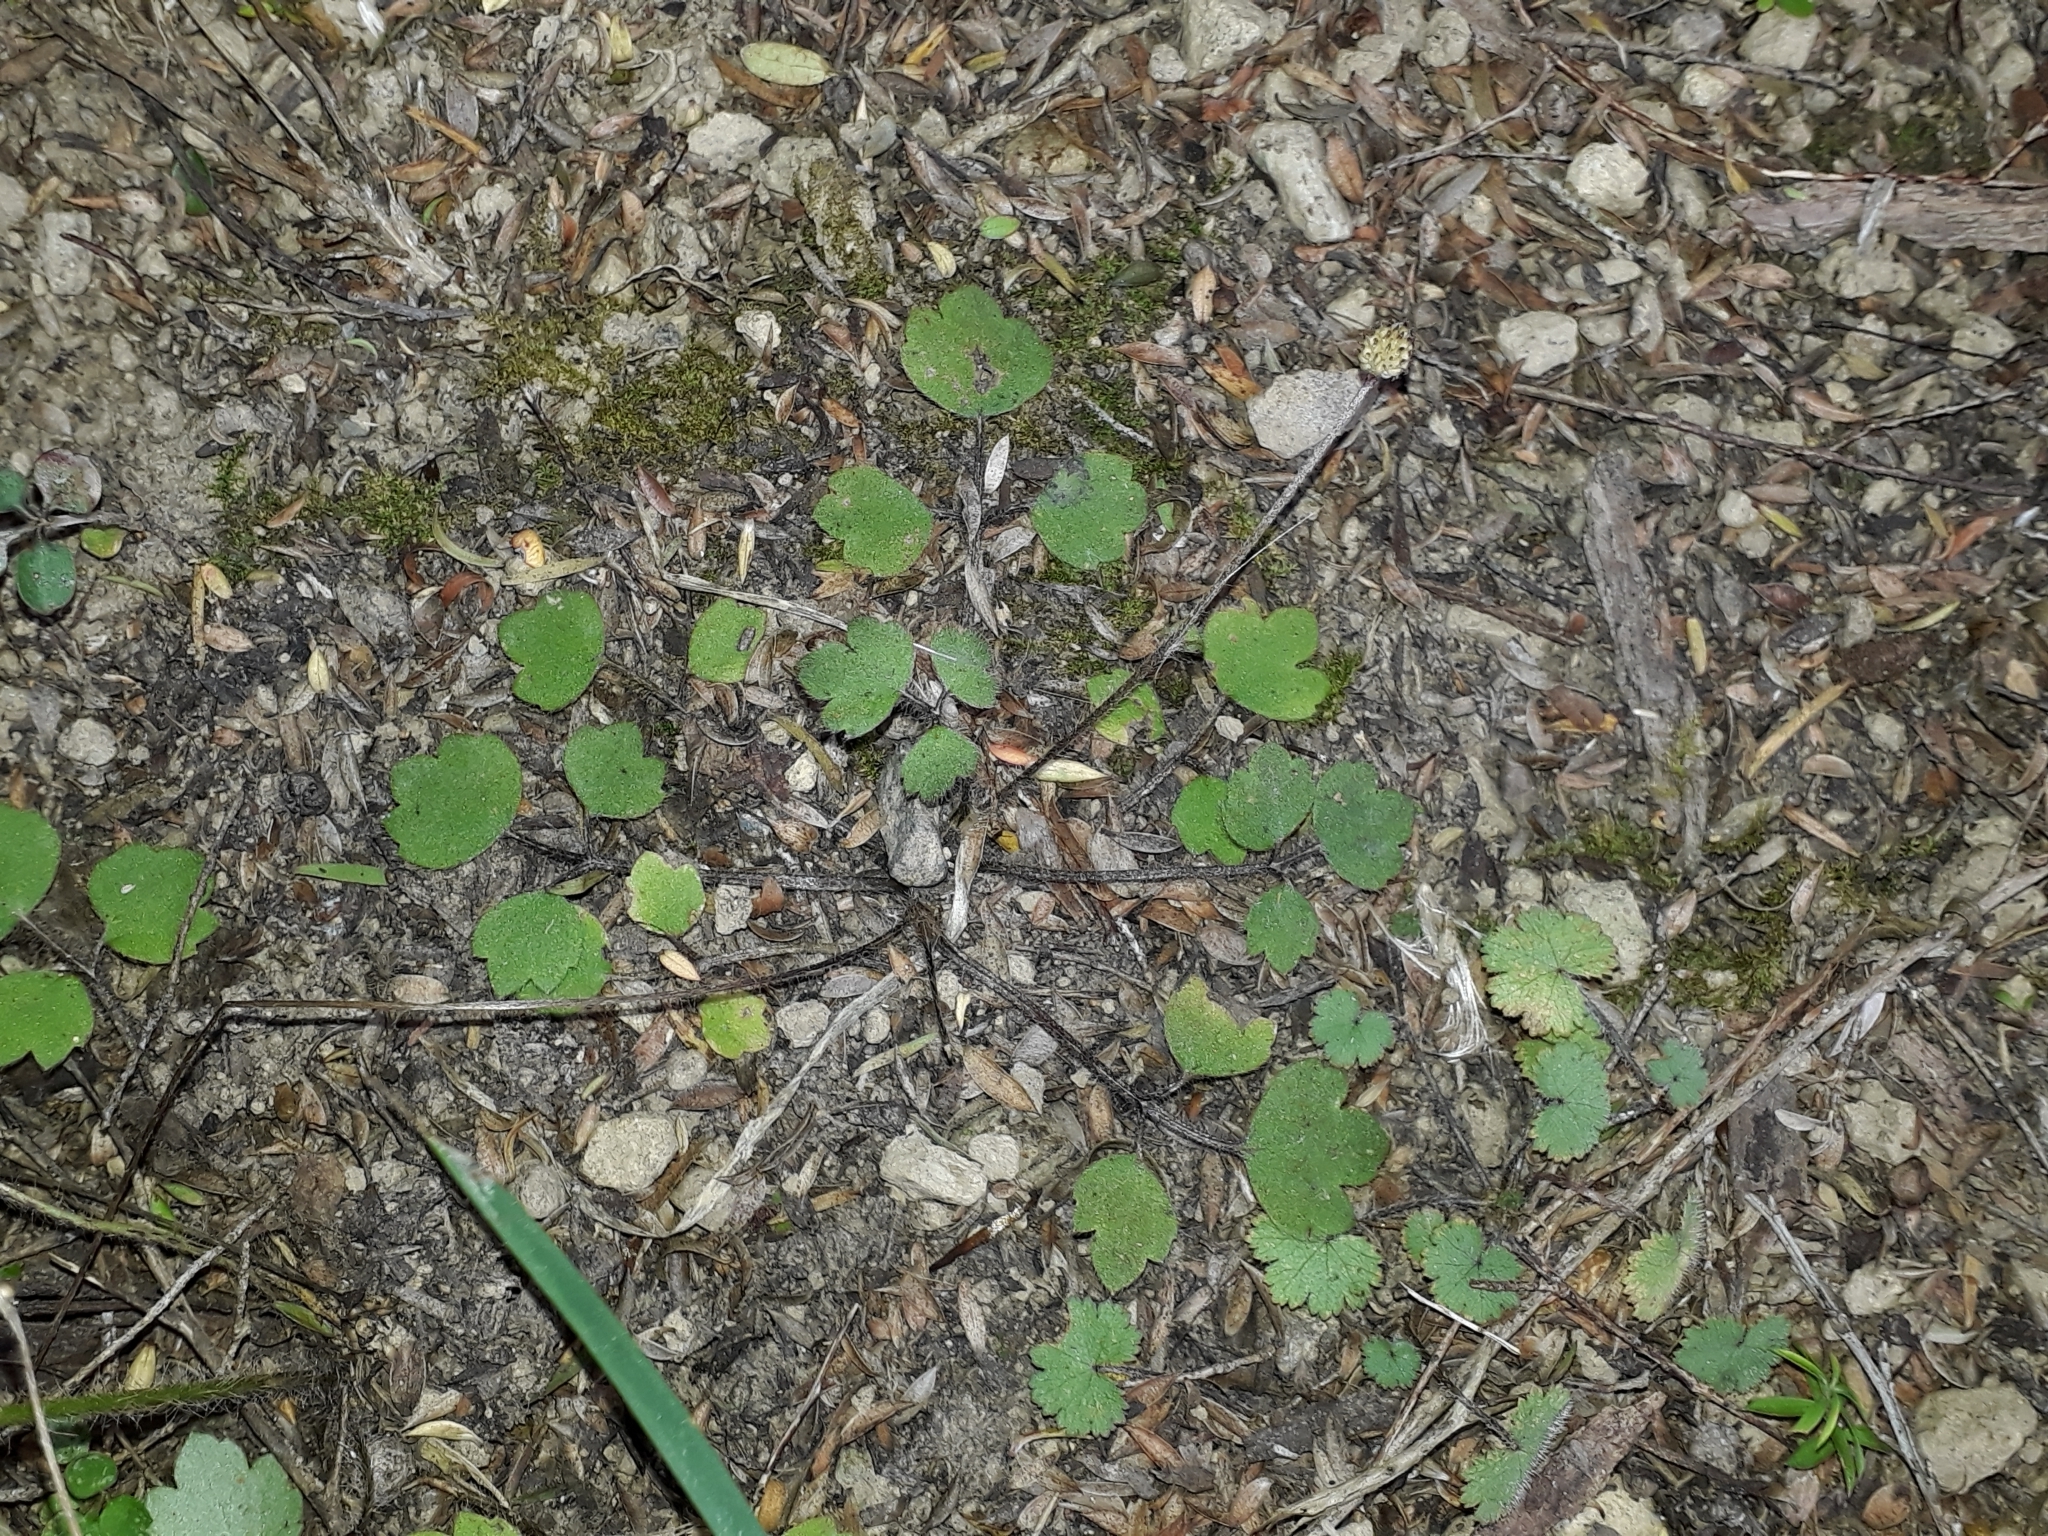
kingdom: Plantae
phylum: Tracheophyta
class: Magnoliopsida
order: Ranunculales
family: Ranunculaceae
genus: Ranunculus
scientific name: Ranunculus reflexus
